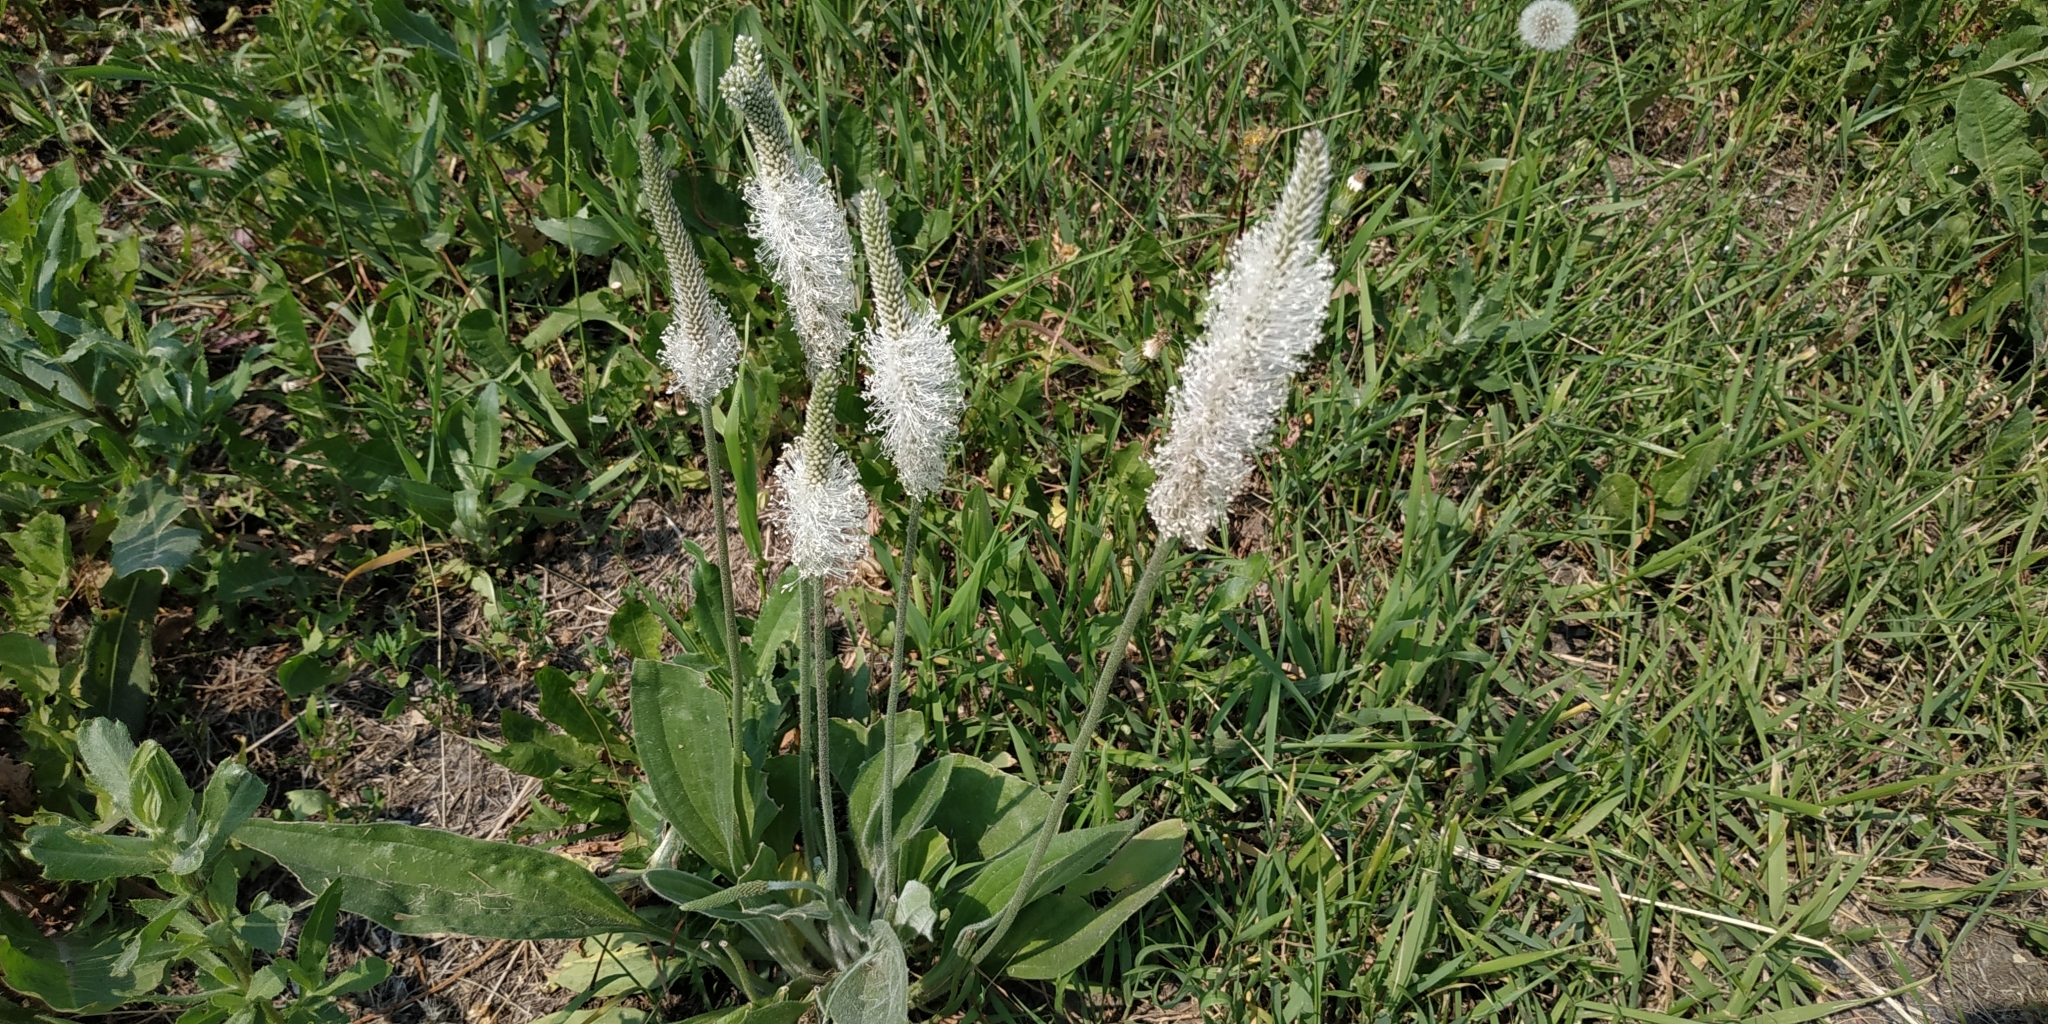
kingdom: Plantae
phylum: Tracheophyta
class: Magnoliopsida
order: Lamiales
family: Plantaginaceae
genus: Plantago
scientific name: Plantago media
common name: Hoary plantain
